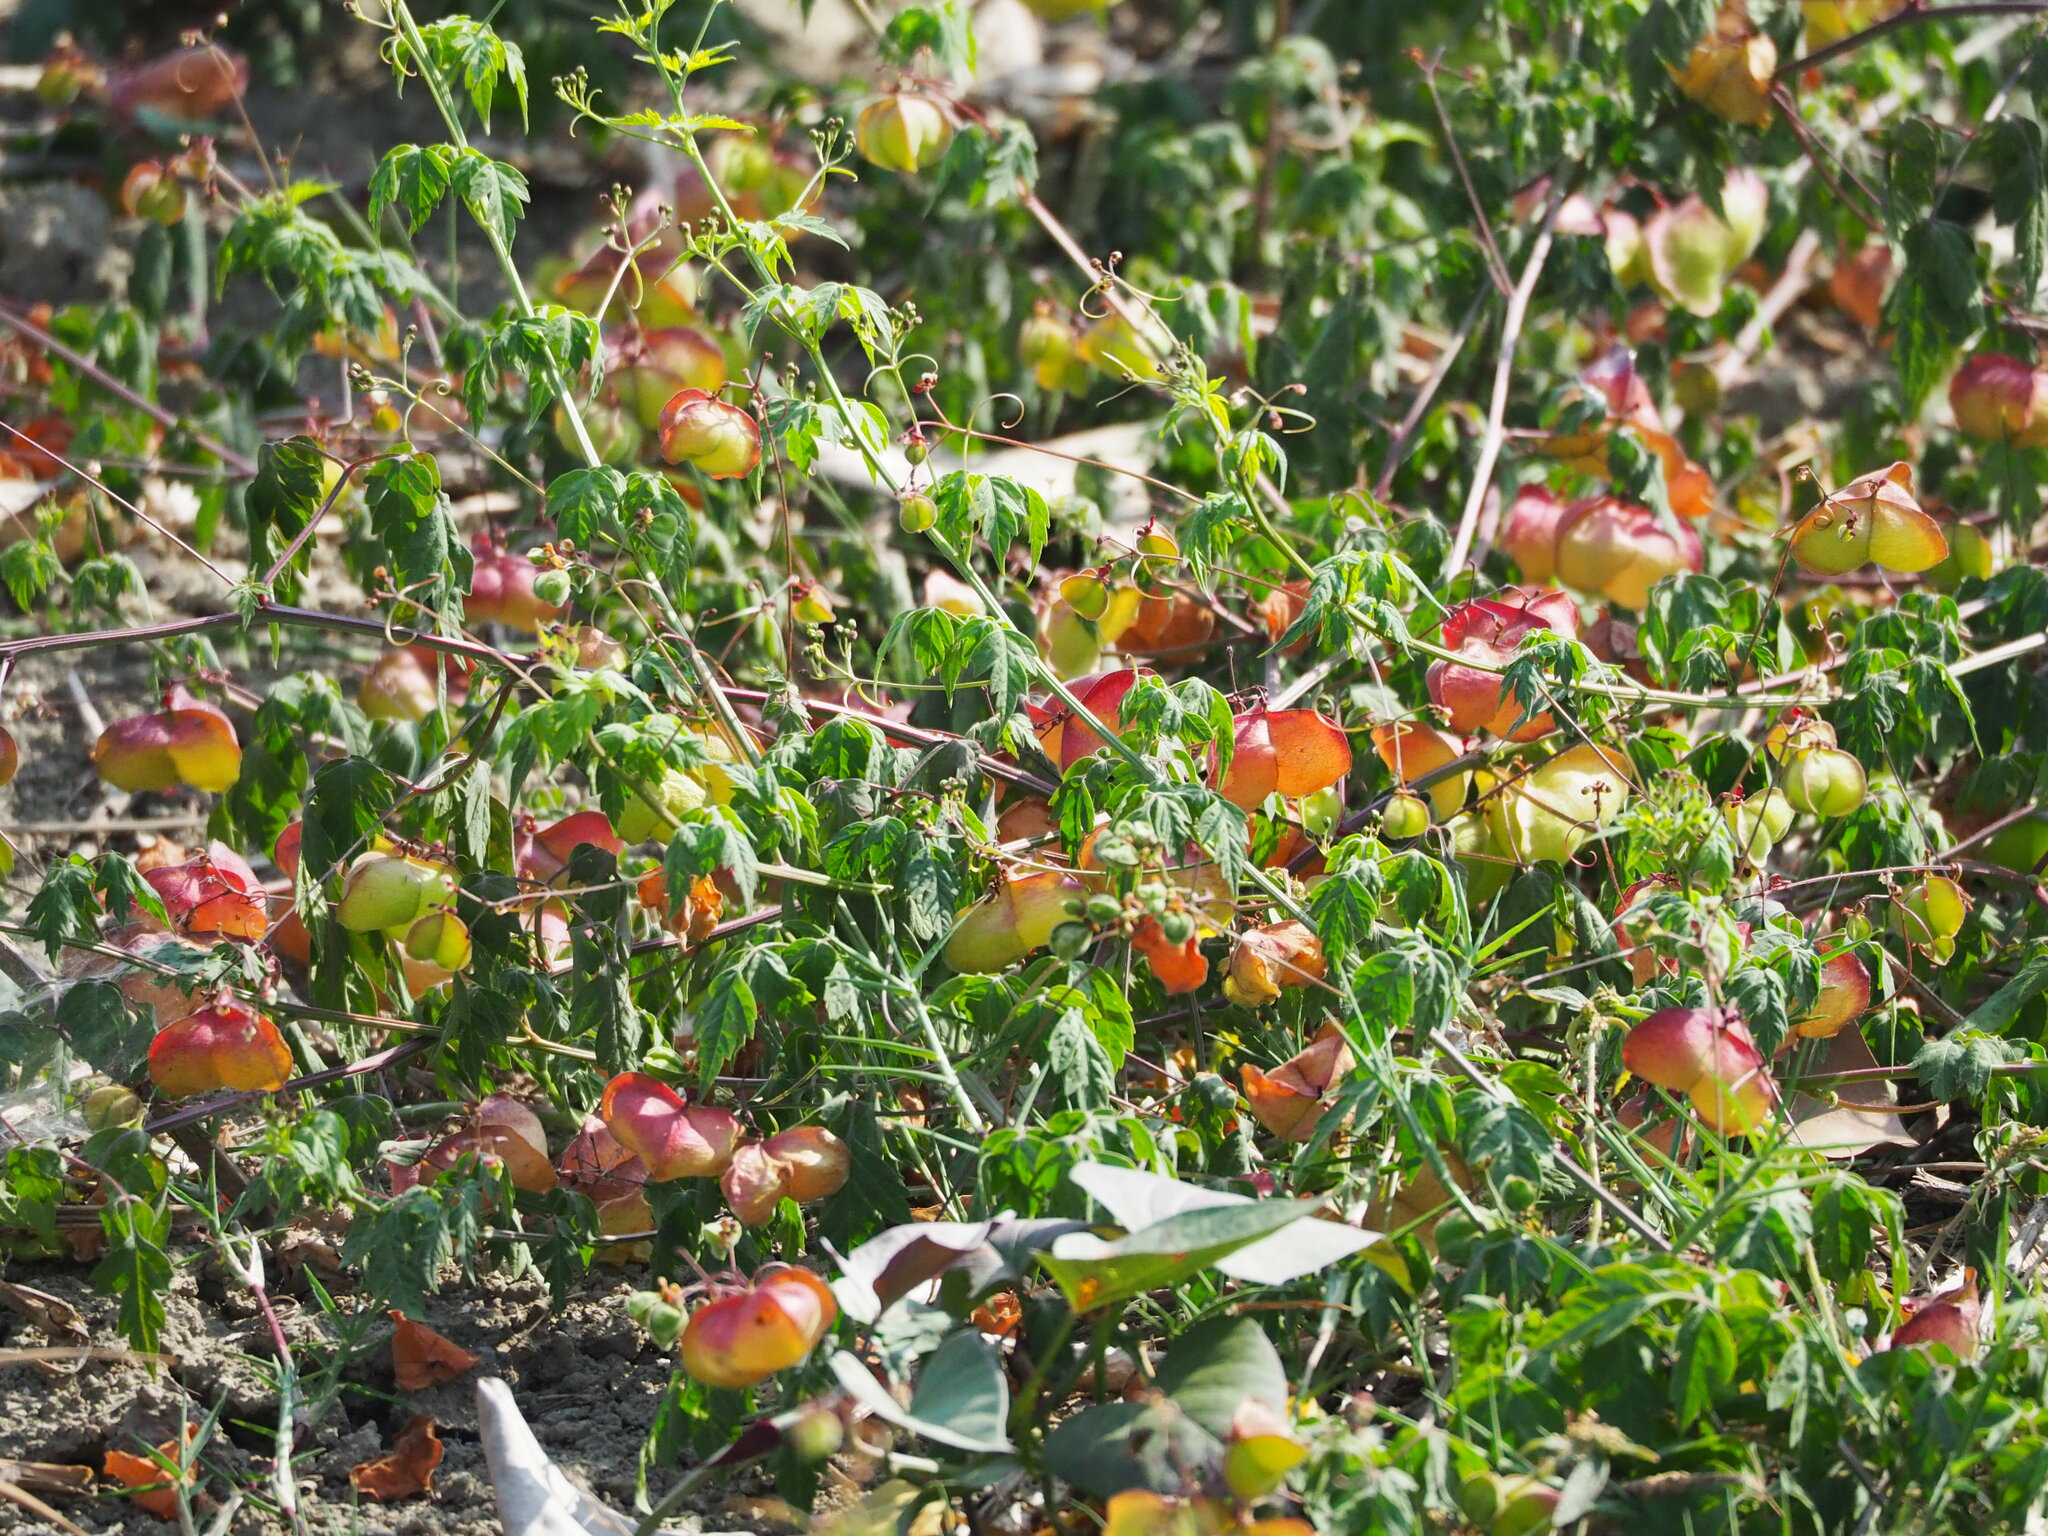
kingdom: Plantae
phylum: Tracheophyta
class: Magnoliopsida
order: Sapindales
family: Sapindaceae
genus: Cardiospermum
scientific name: Cardiospermum halicacabum
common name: Balloon vine
